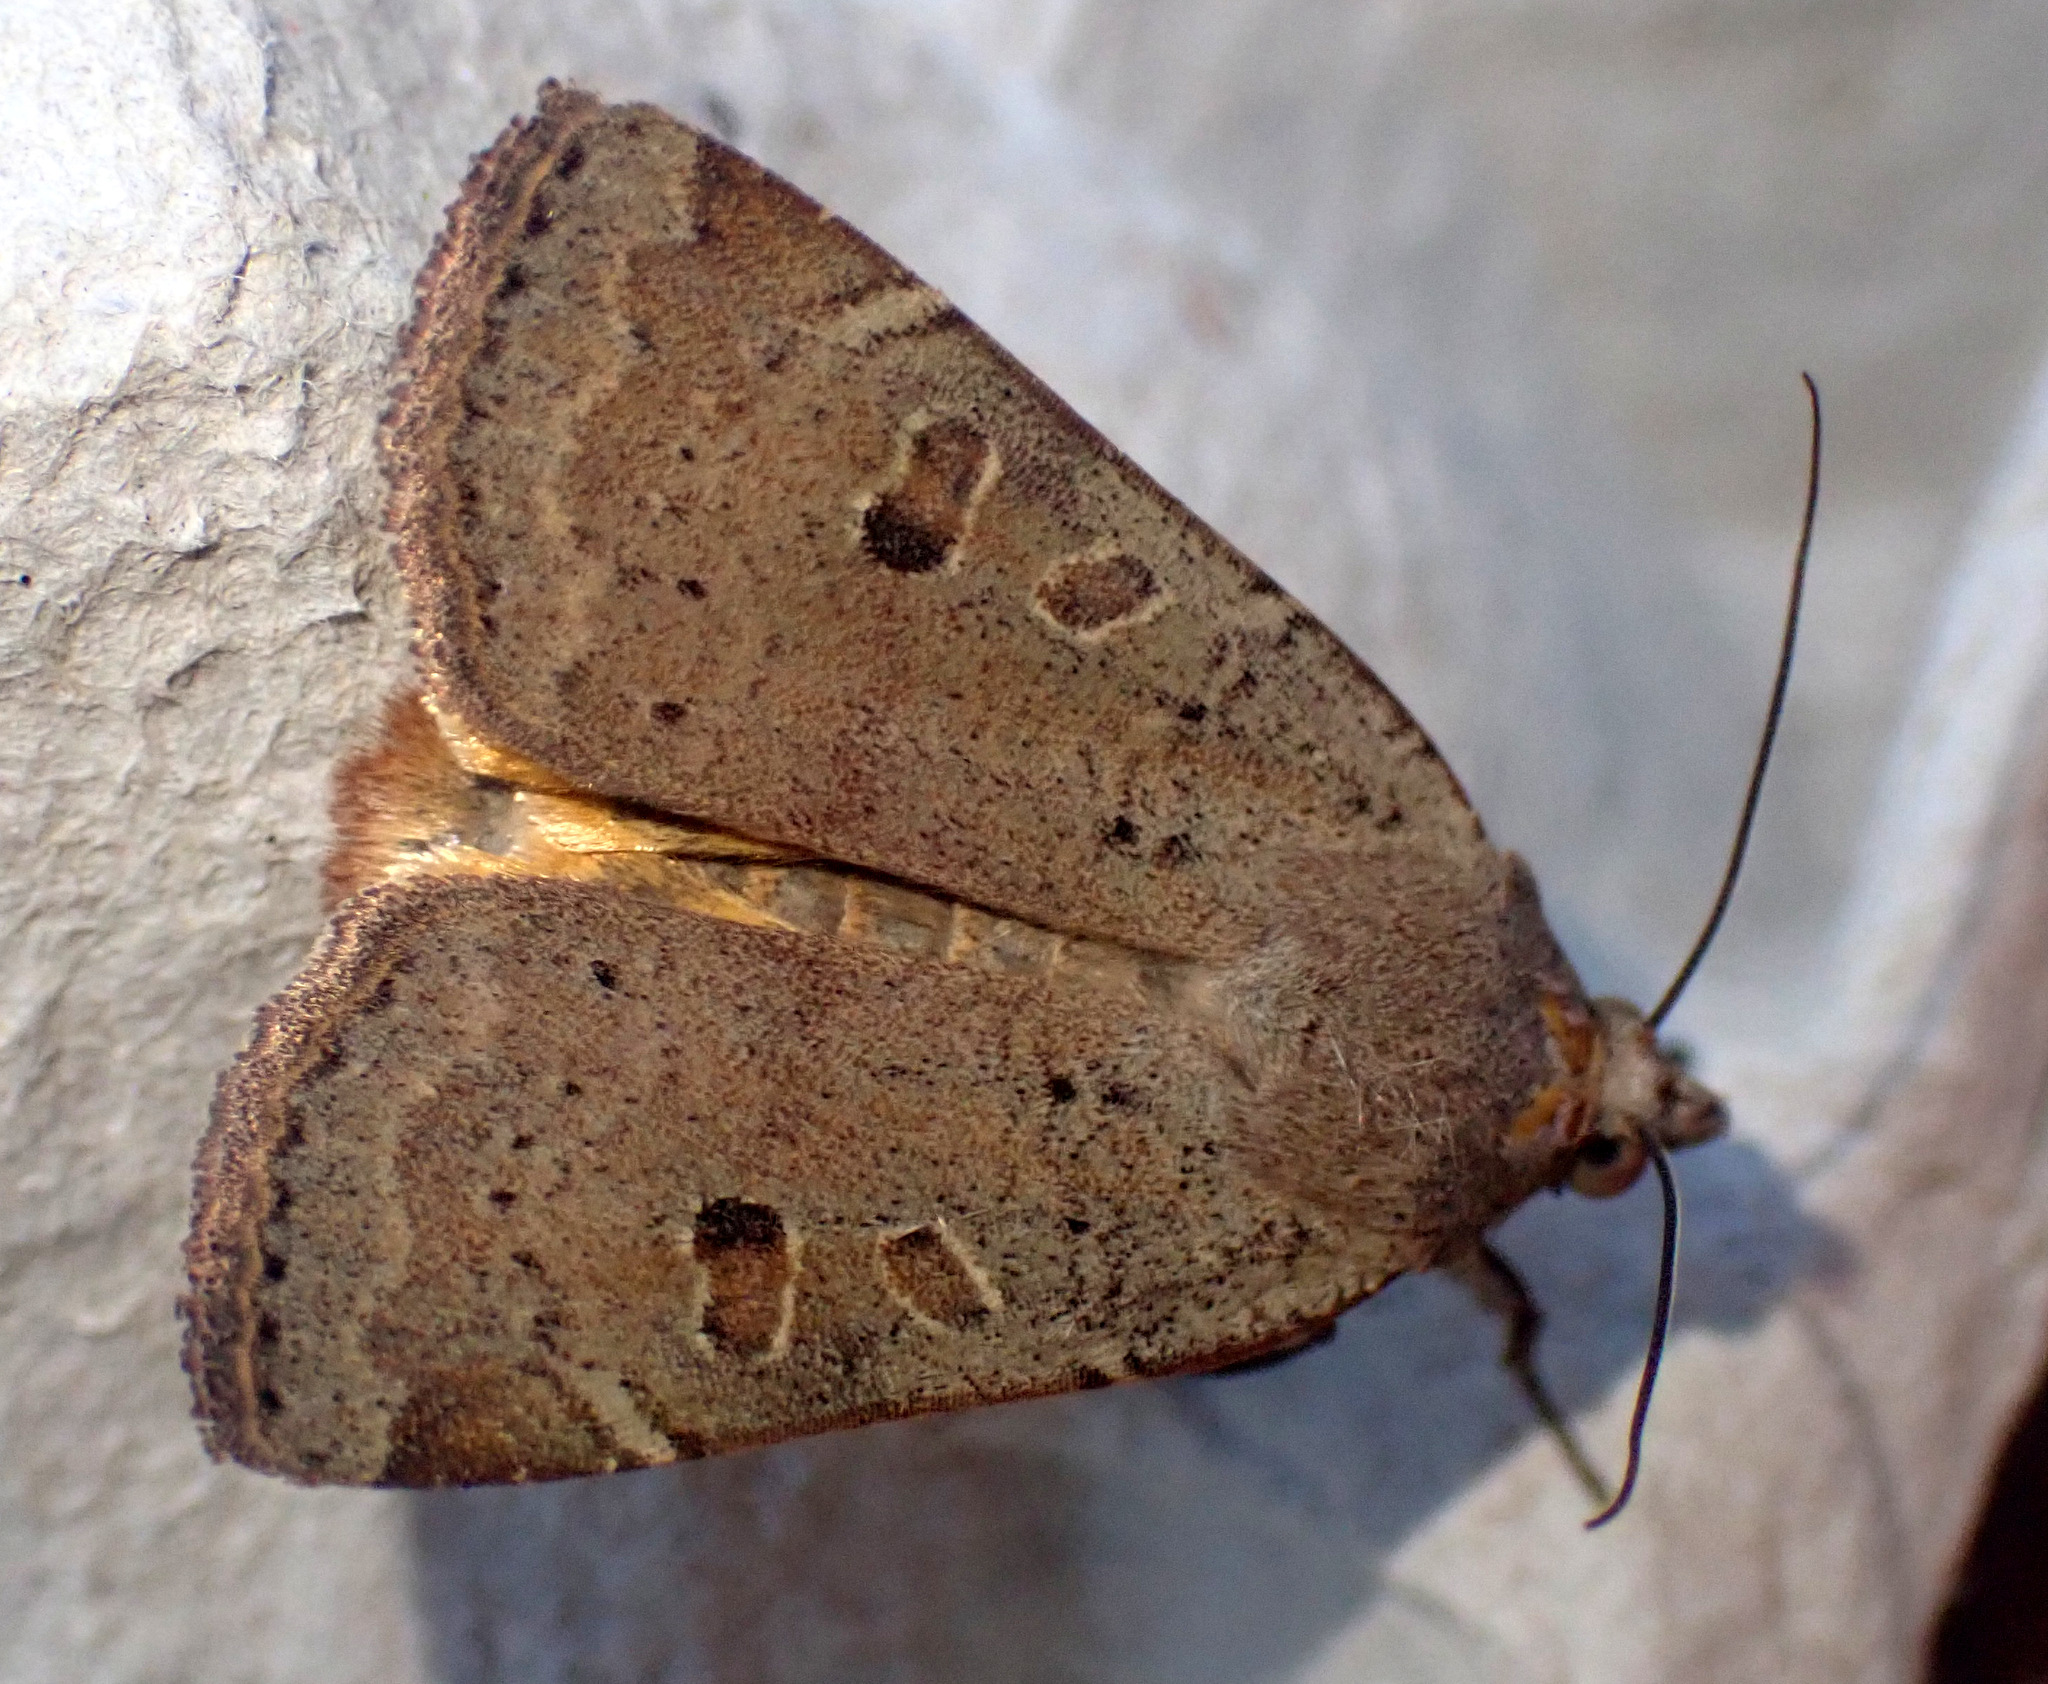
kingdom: Animalia
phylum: Arthropoda
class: Insecta
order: Lepidoptera
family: Noctuidae
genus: Noctua
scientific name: Noctua comes
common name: Lesser yellow underwing
